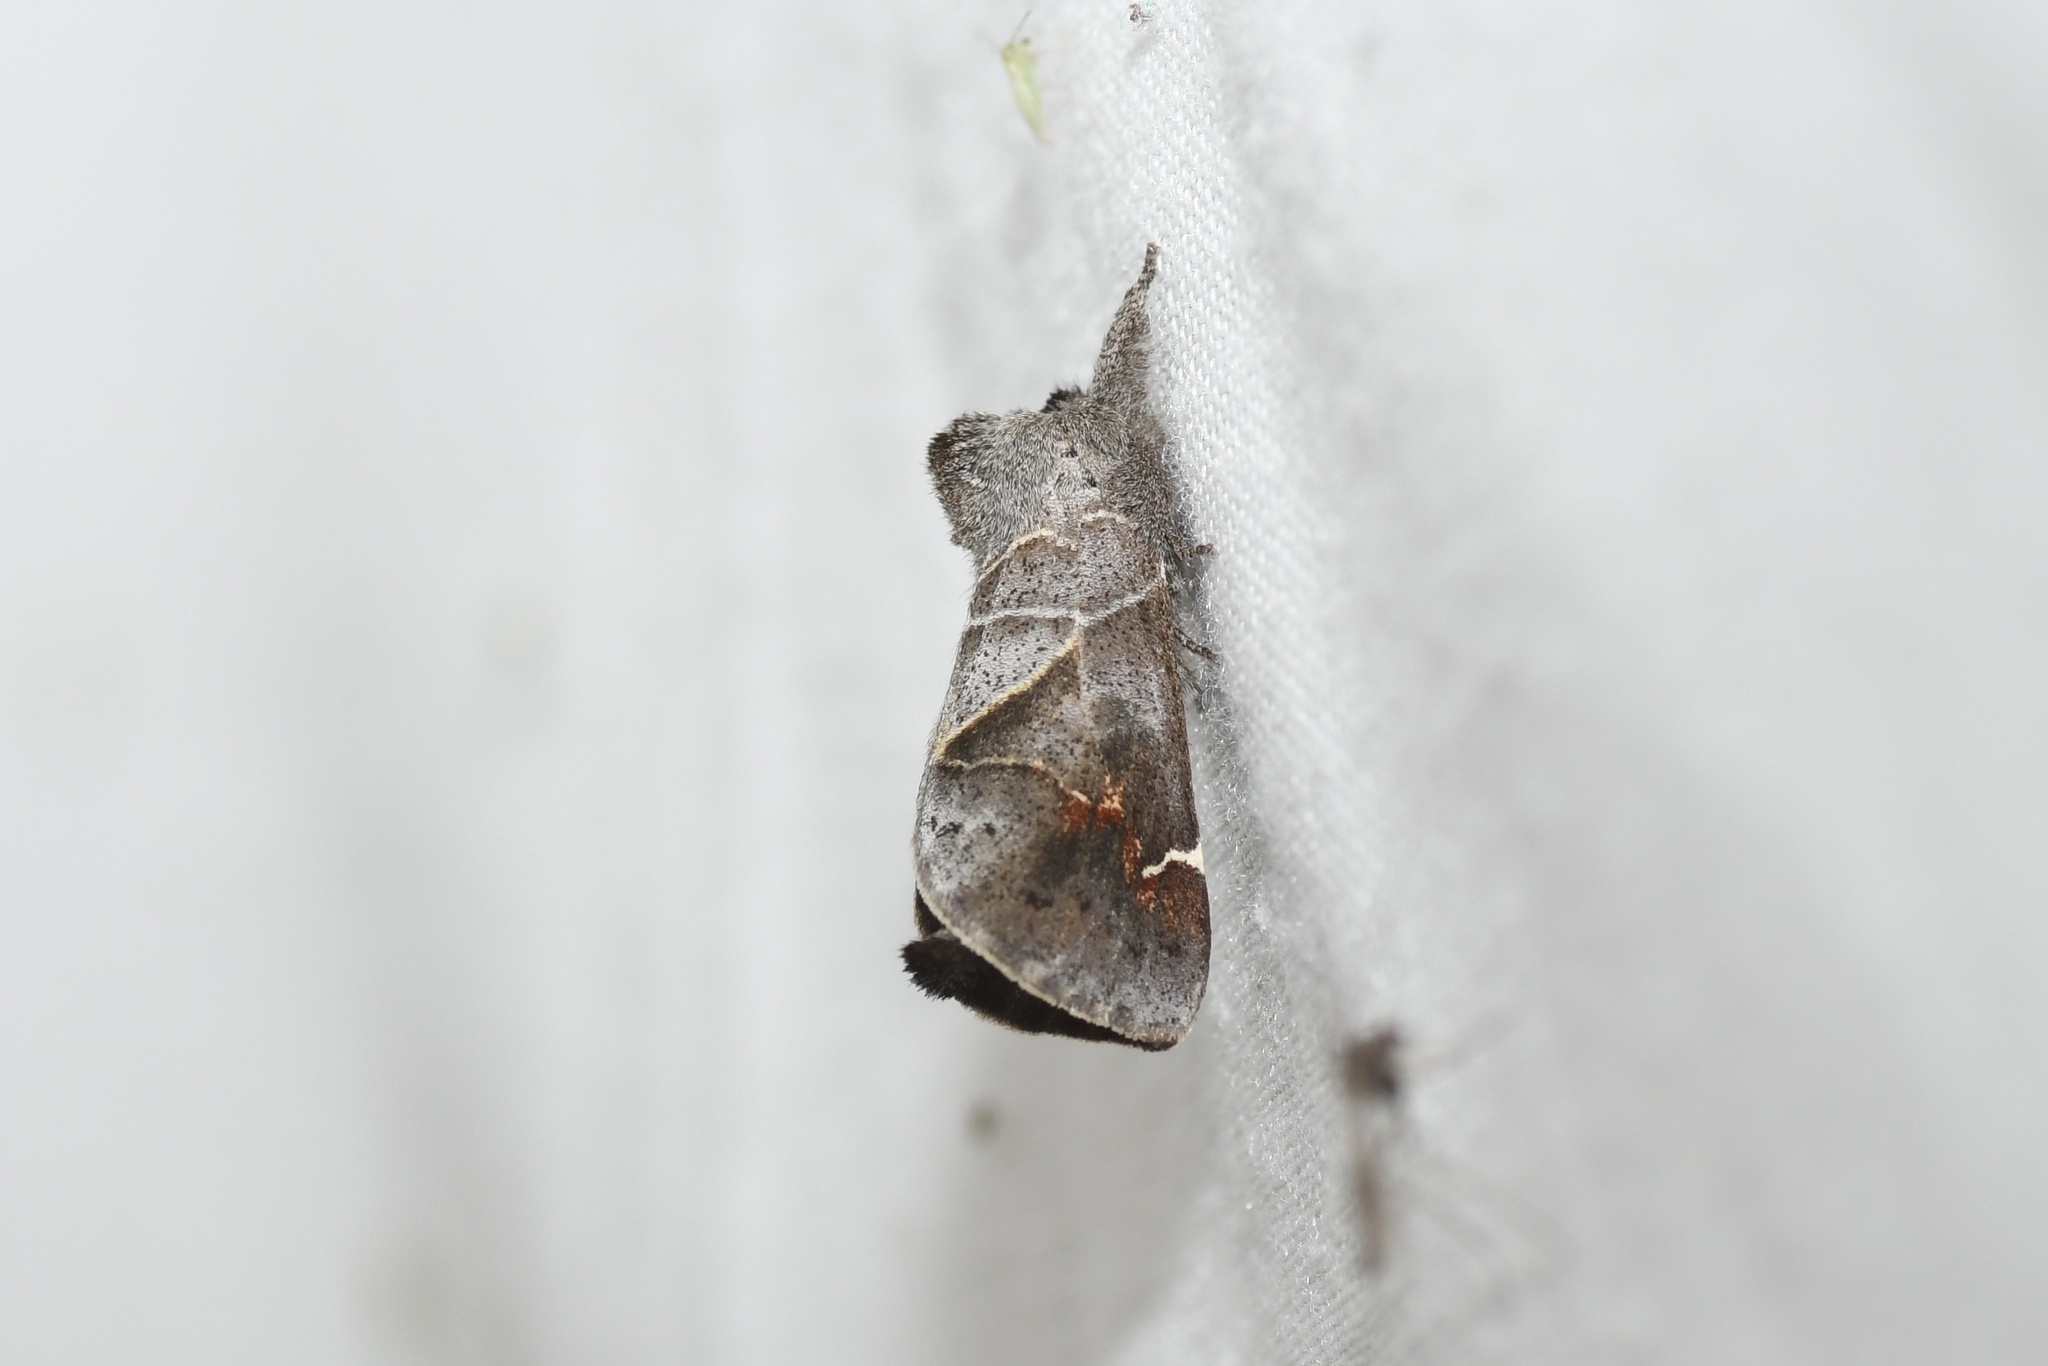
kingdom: Animalia
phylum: Arthropoda
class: Insecta
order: Lepidoptera
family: Notodontidae
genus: Clostera
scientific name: Clostera apicalis
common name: Apical prominent
